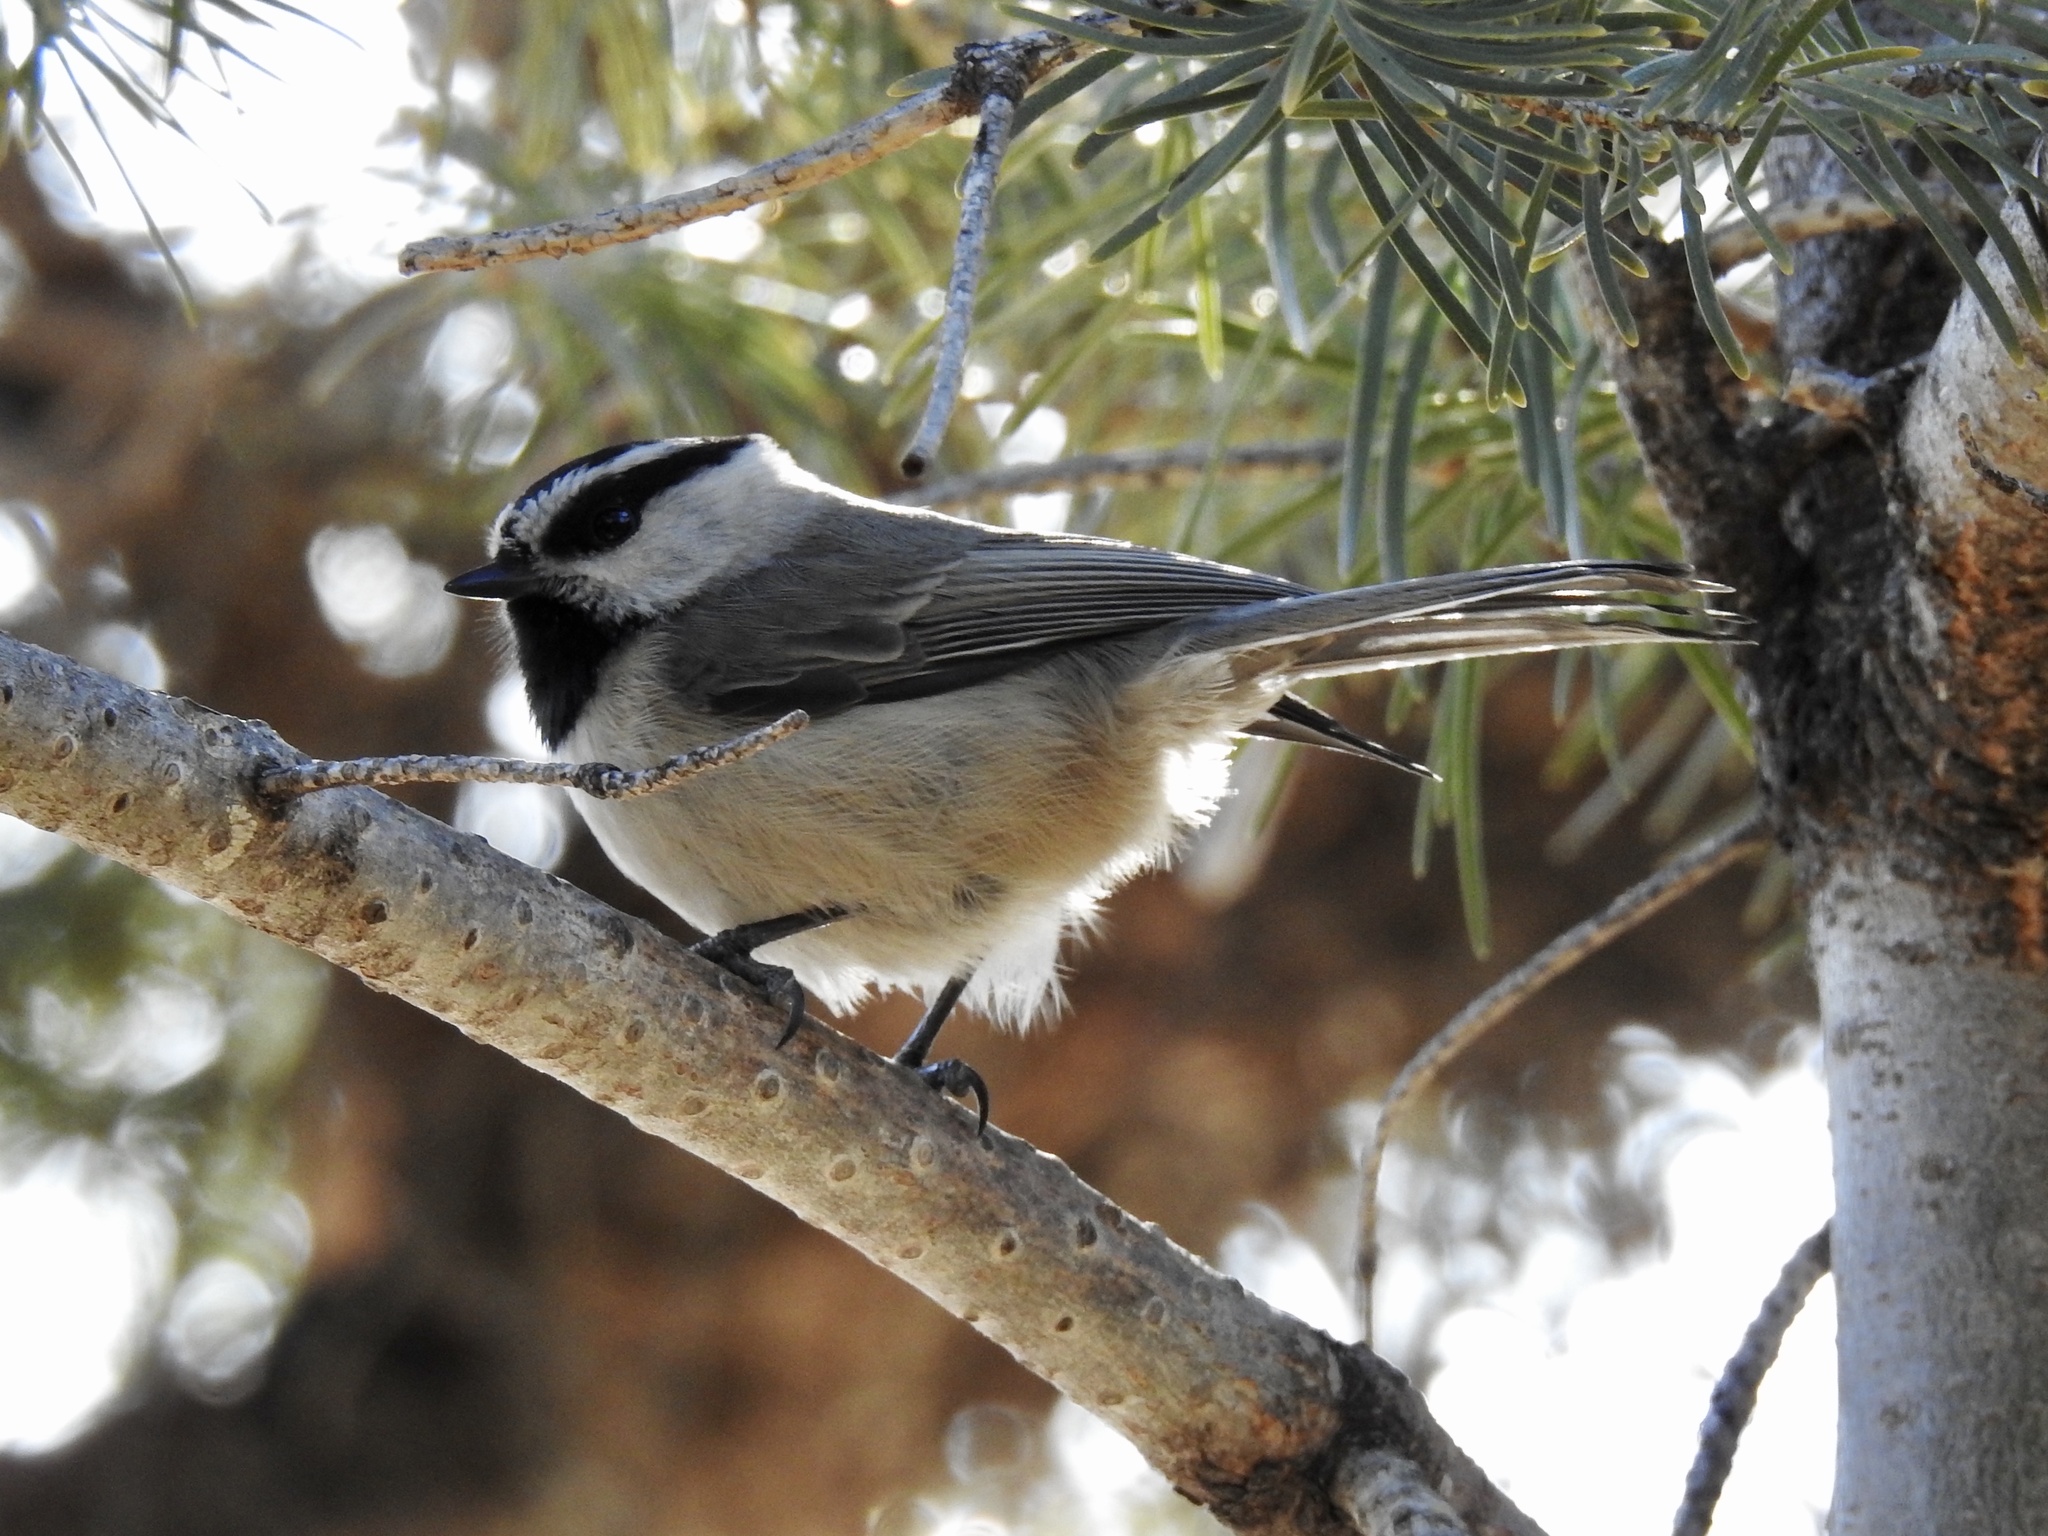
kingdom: Animalia
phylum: Chordata
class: Aves
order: Passeriformes
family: Paridae
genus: Poecile
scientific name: Poecile gambeli
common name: Mountain chickadee
